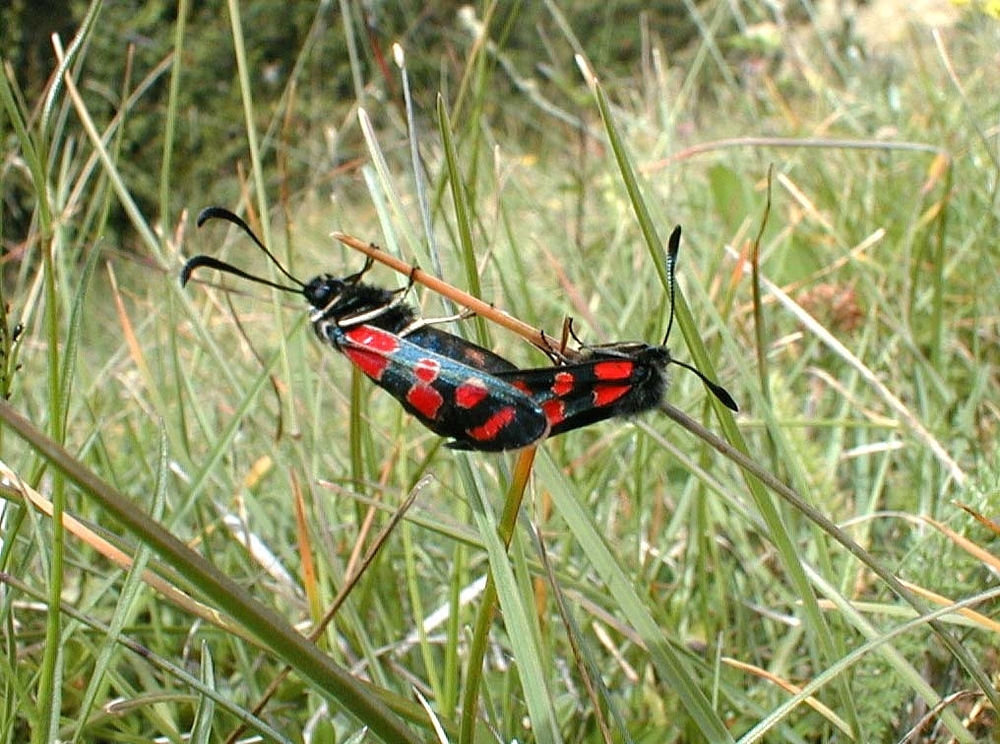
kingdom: Animalia
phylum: Arthropoda
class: Insecta
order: Lepidoptera
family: Zygaenidae
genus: Zygaena
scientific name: Zygaena carniolica
